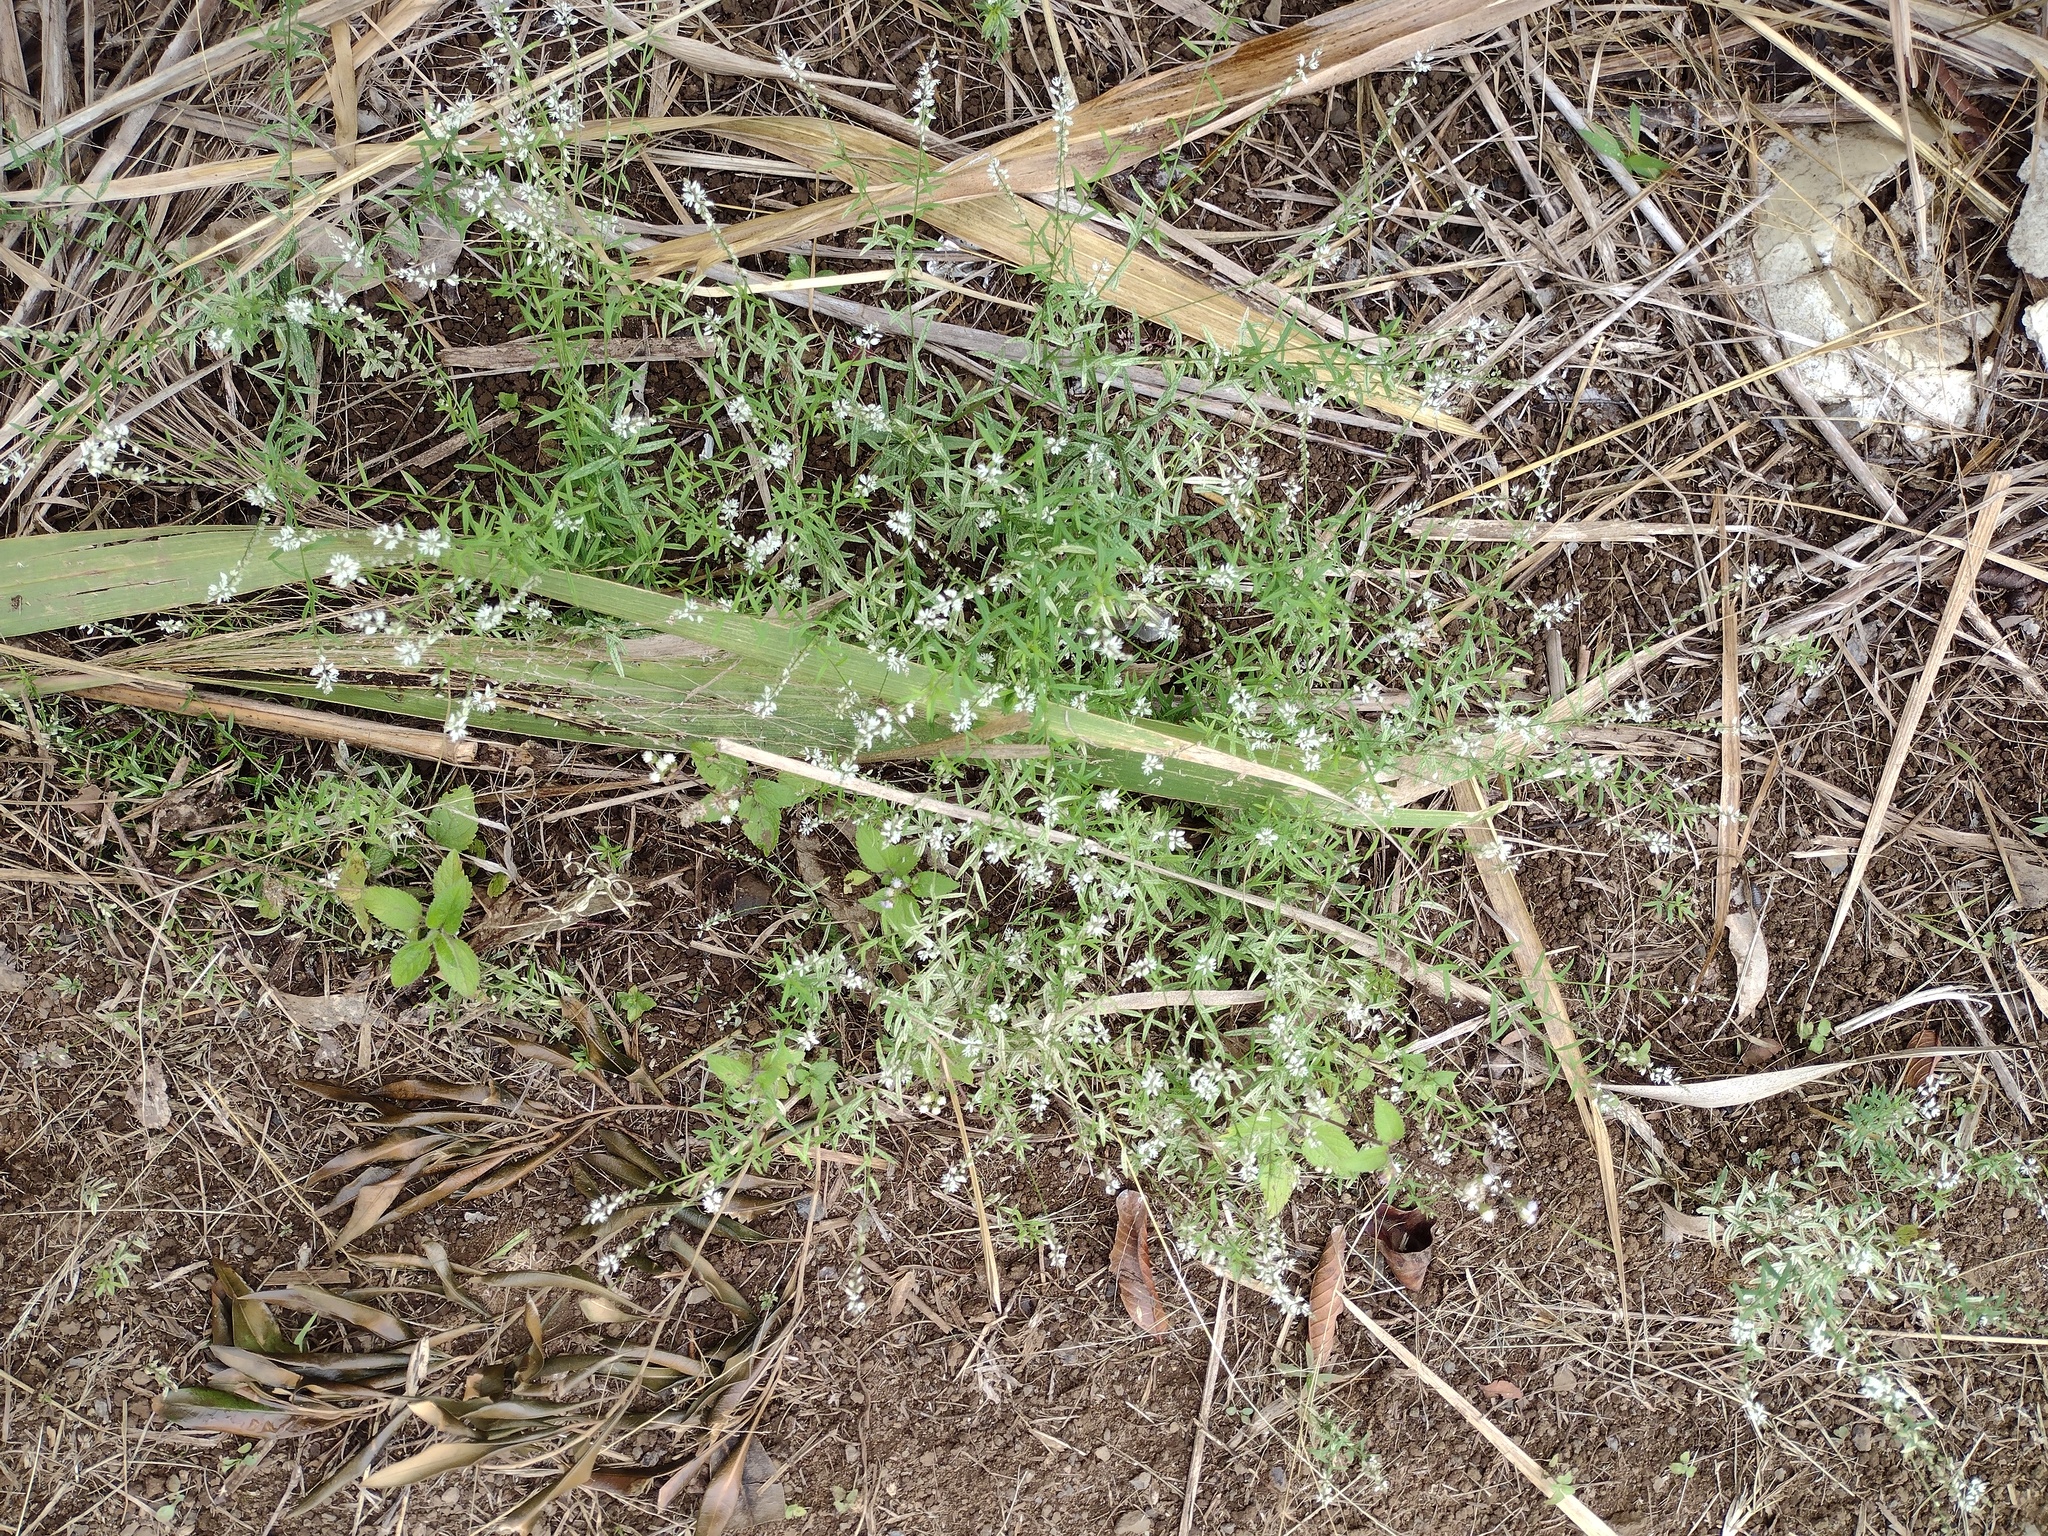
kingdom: Plantae
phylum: Tracheophyta
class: Magnoliopsida
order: Fabales
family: Polygalaceae
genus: Polygala
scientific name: Polygala paniculata
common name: Orosne
